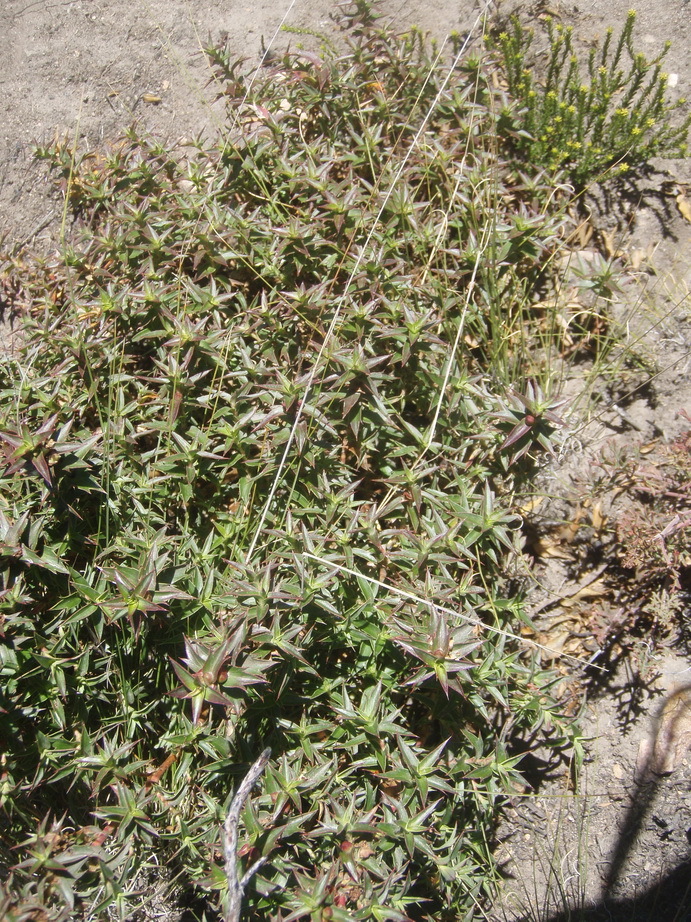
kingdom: Plantae
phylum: Tracheophyta
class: Magnoliopsida
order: Rosales
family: Rosaceae
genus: Cliffortia
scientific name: Cliffortia ilicifolia
